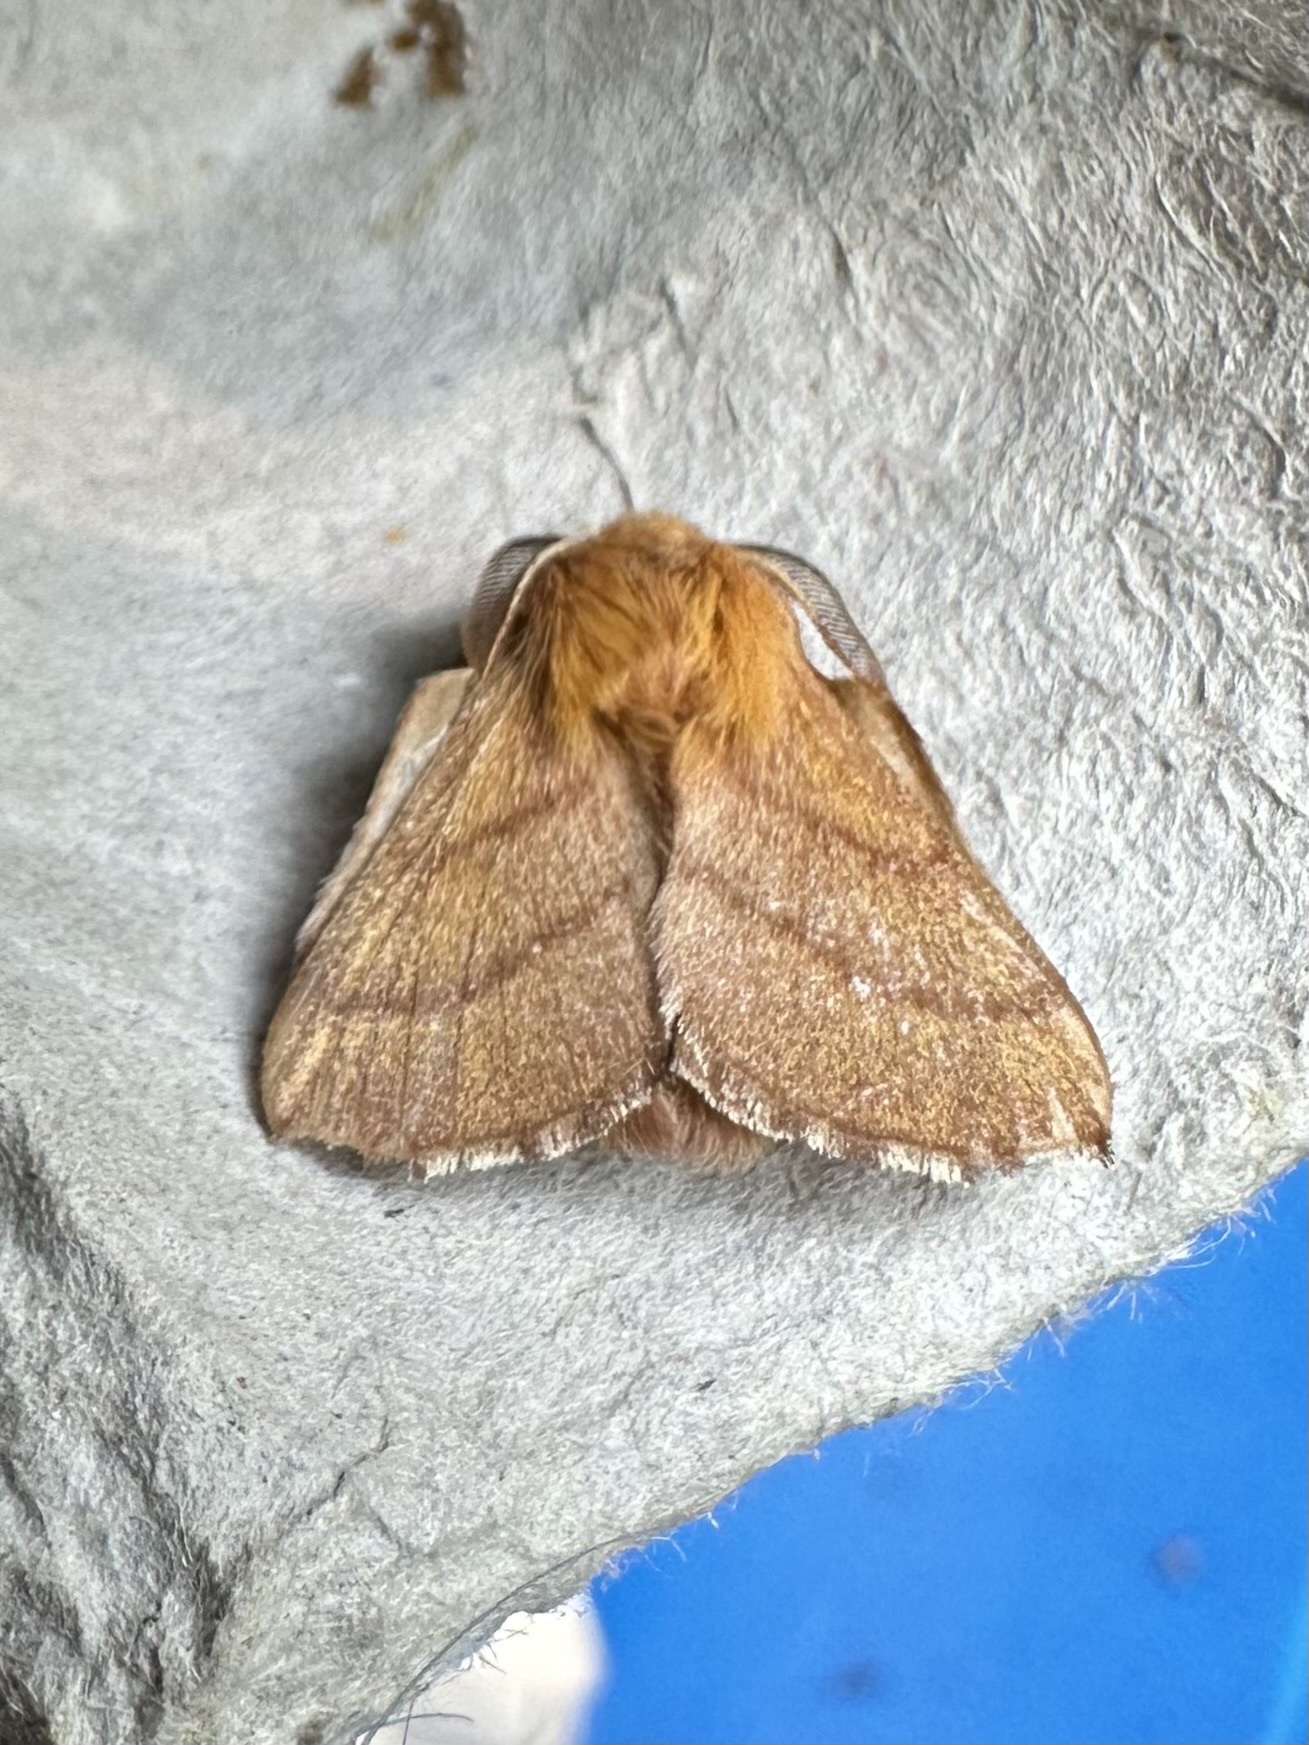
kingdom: Animalia
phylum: Arthropoda
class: Insecta
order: Lepidoptera
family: Lasiocampidae
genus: Malacosoma
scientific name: Malacosoma disstria
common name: Forest tent caterpillar
